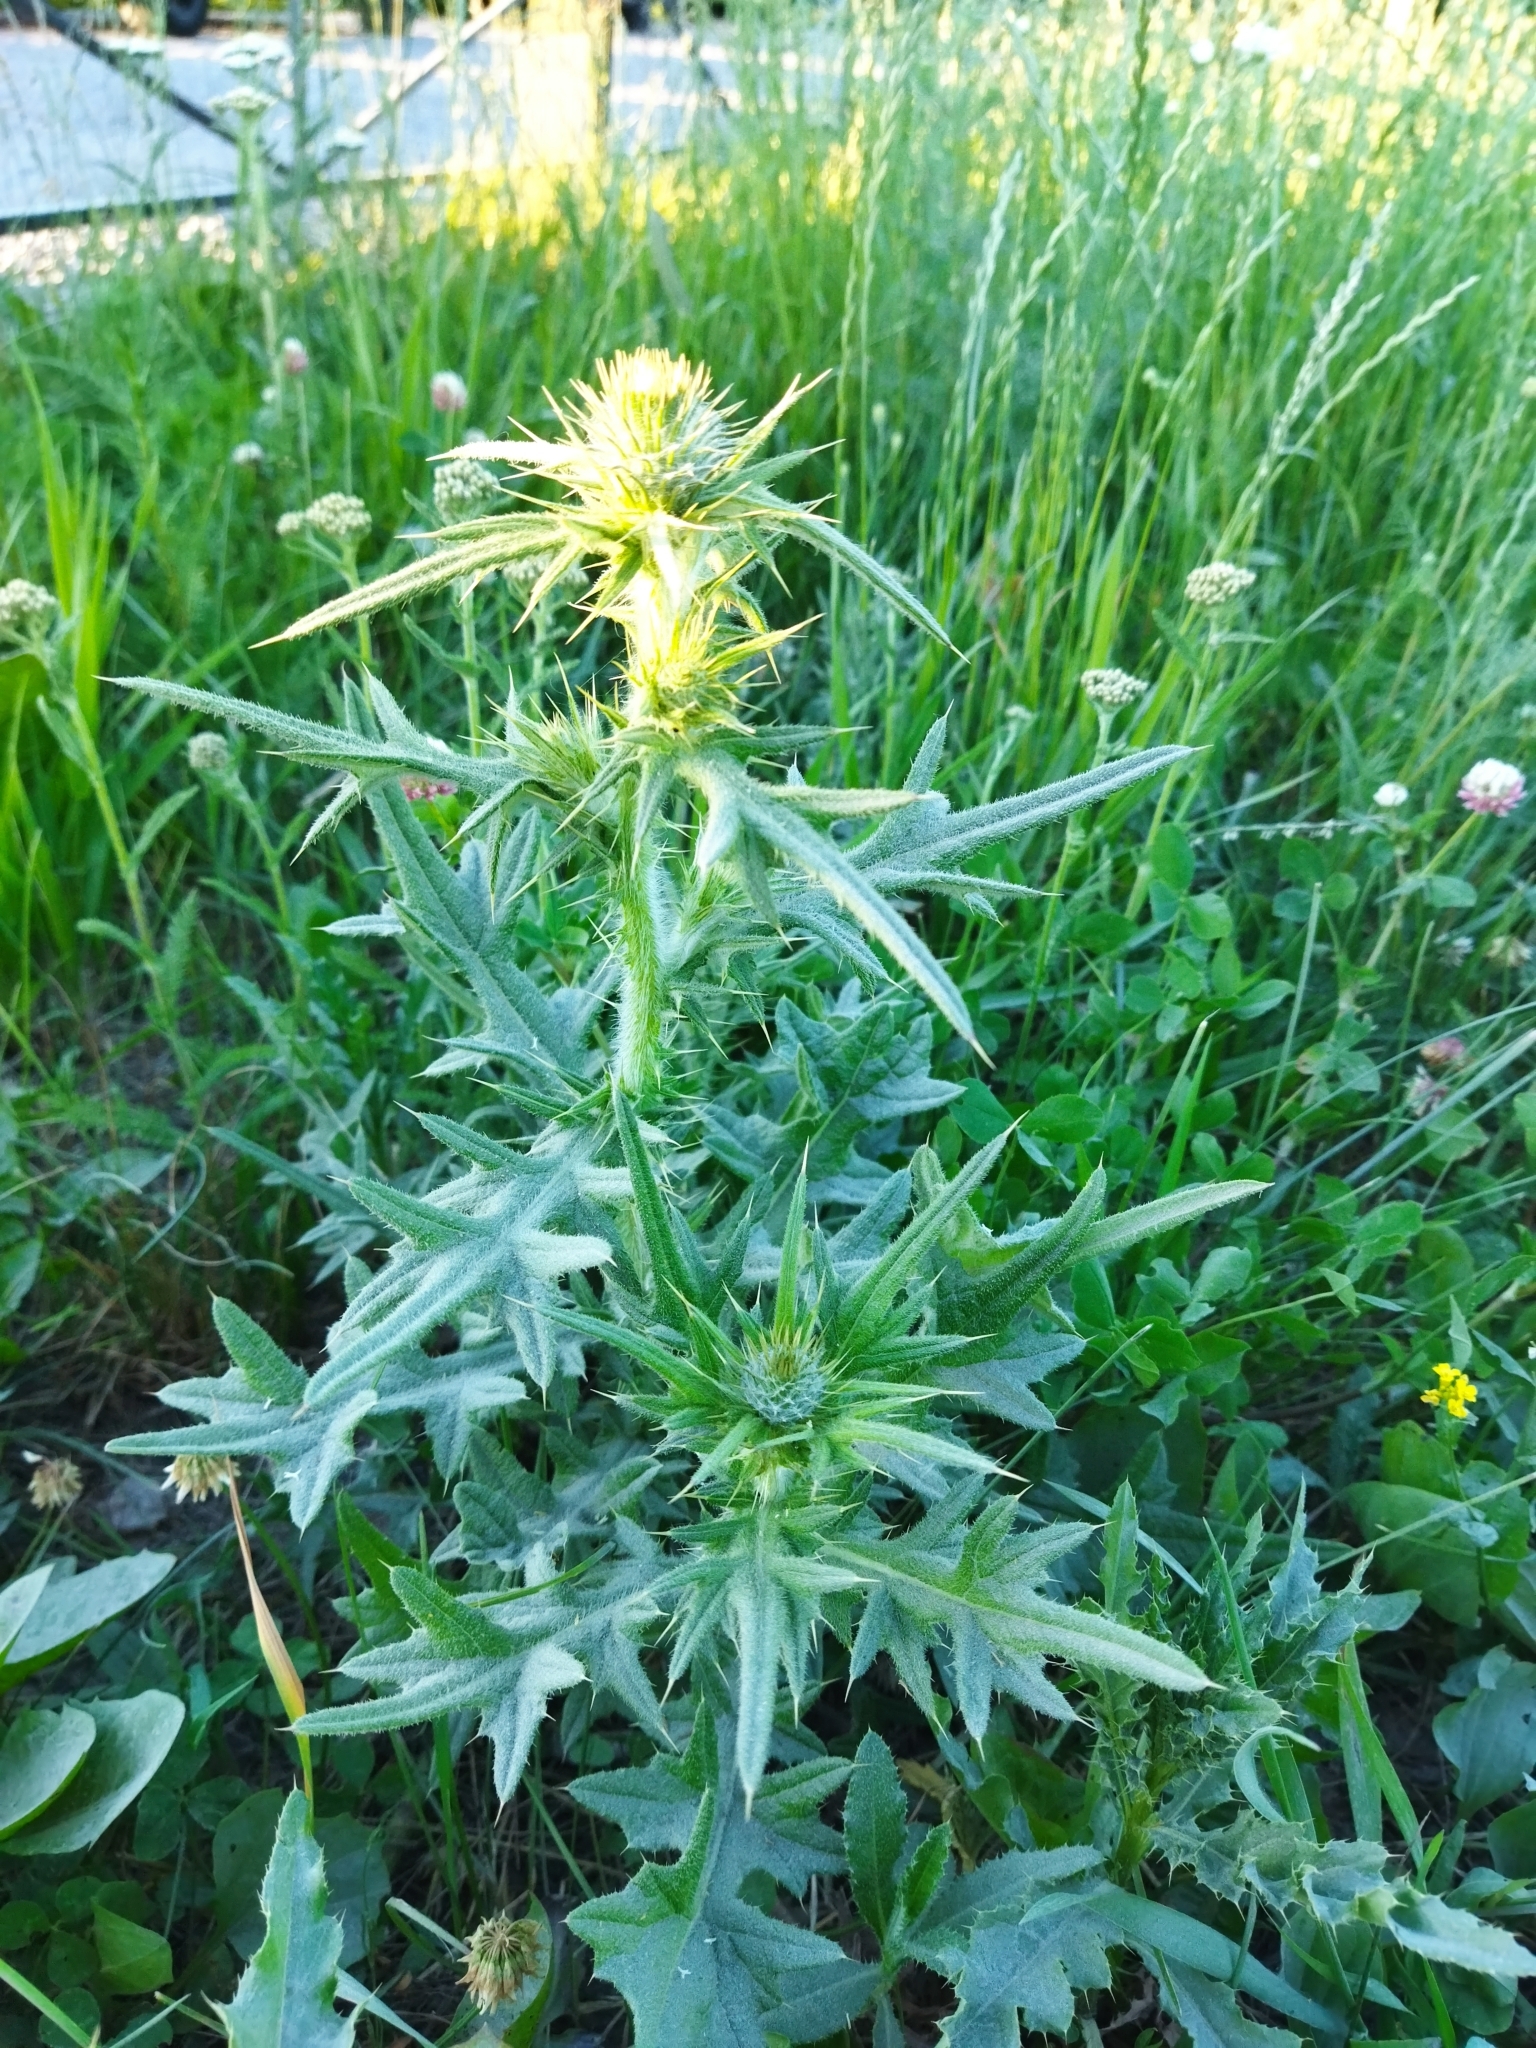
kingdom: Plantae
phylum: Tracheophyta
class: Magnoliopsida
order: Asterales
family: Asteraceae
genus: Cirsium
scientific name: Cirsium vulgare
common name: Bull thistle
